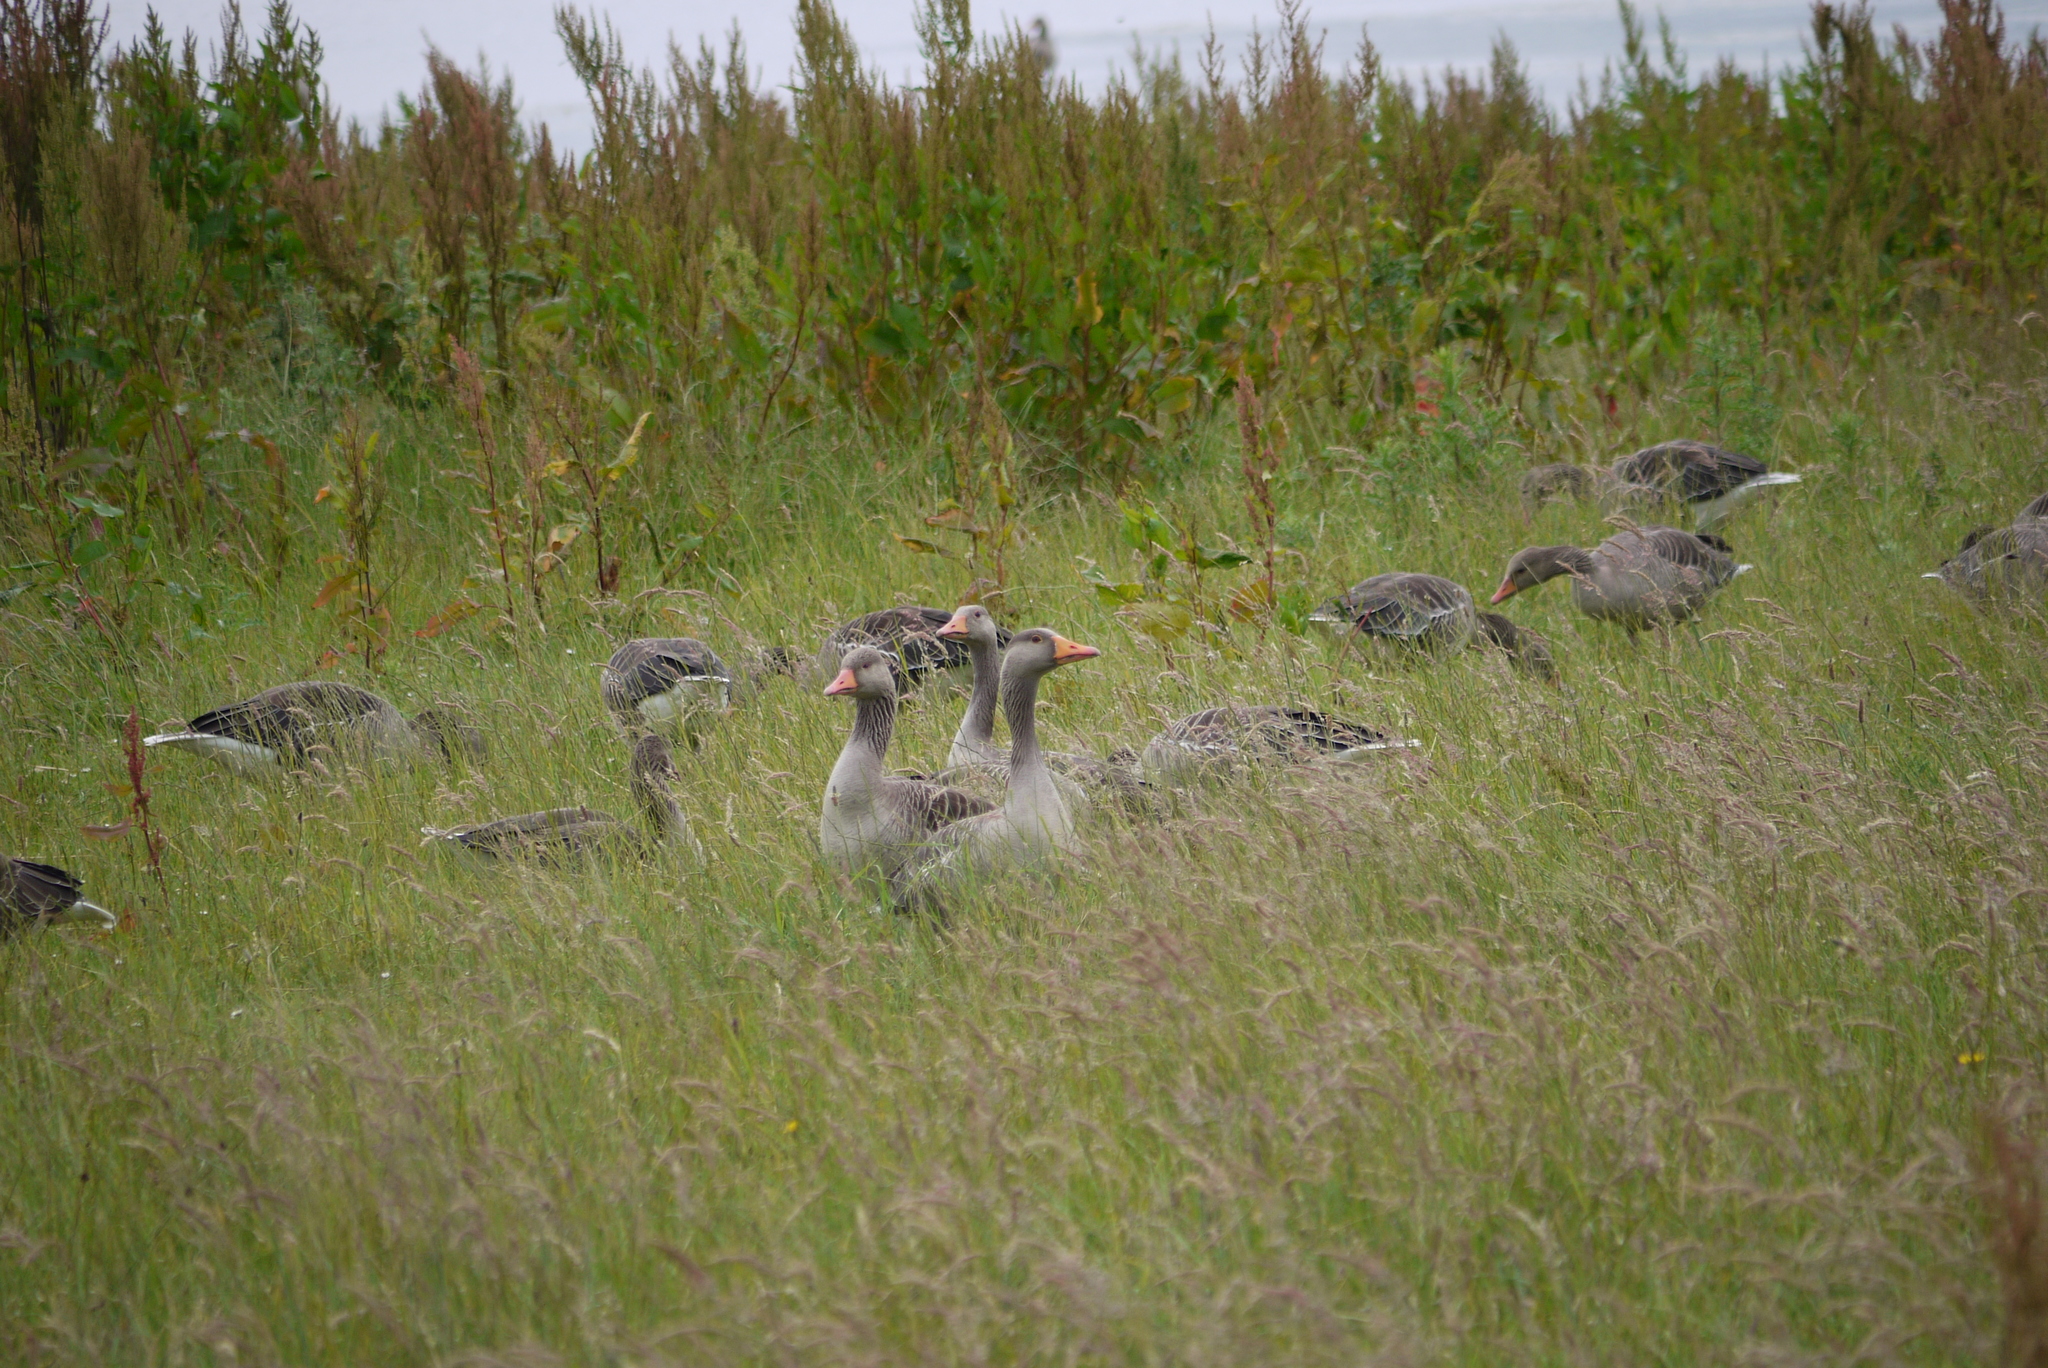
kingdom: Animalia
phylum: Chordata
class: Aves
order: Anseriformes
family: Anatidae
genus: Anser
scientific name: Anser anser
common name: Greylag goose
